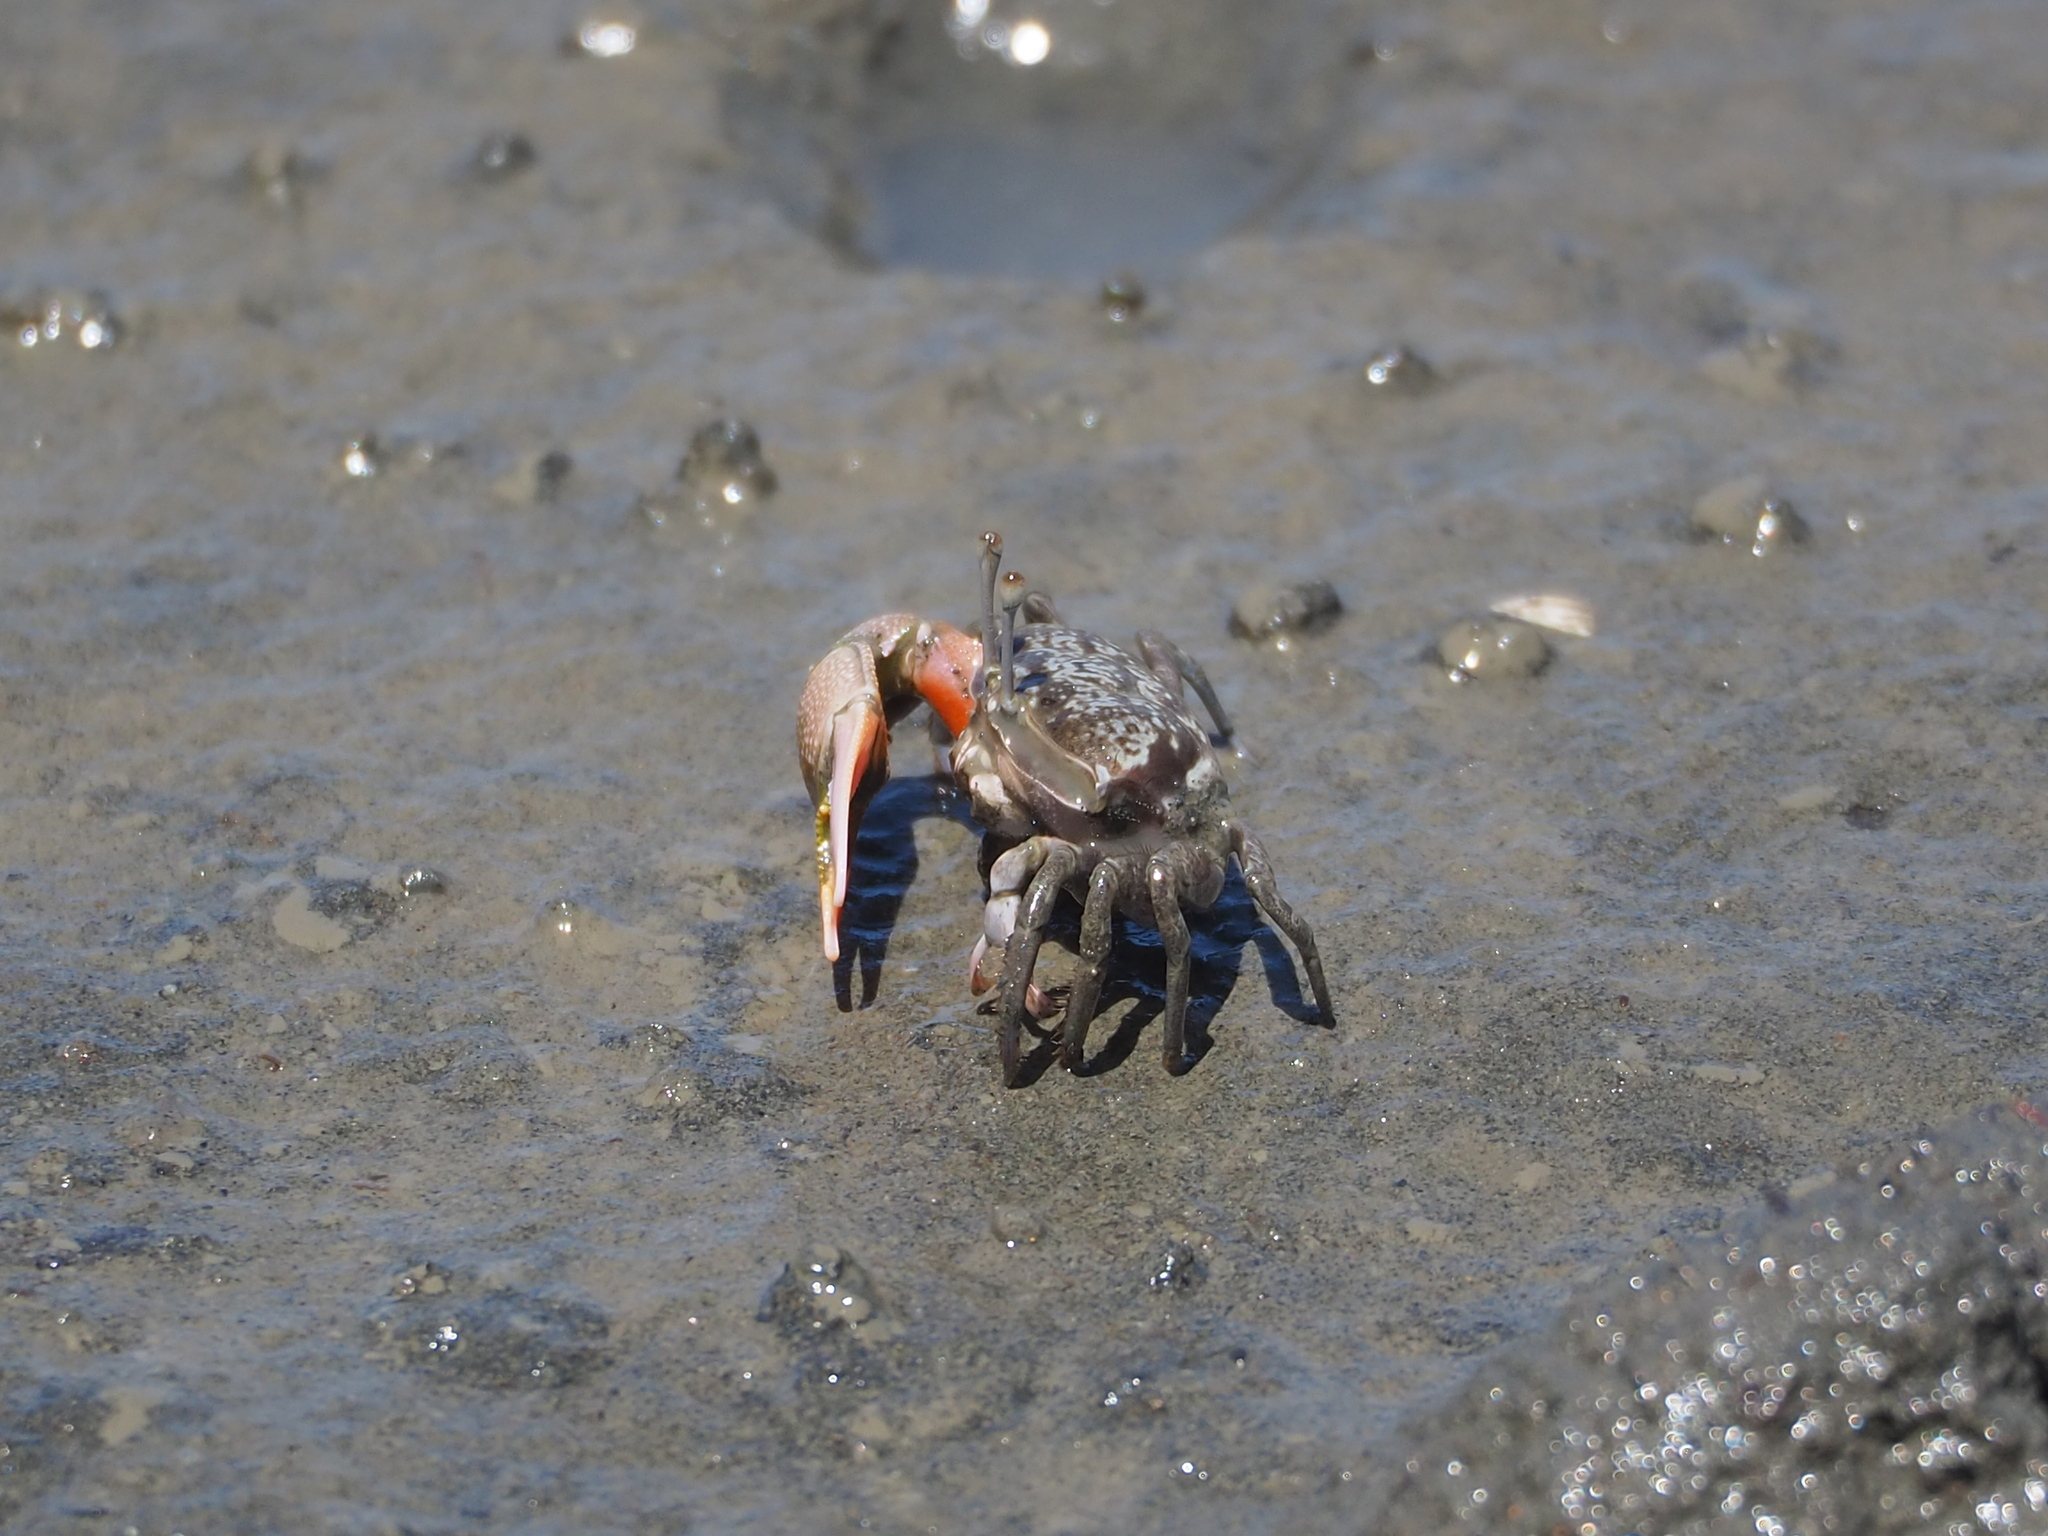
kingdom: Animalia
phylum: Arthropoda
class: Malacostraca
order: Decapoda
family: Ocypodidae
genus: Gelasimus
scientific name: Gelasimus borealis
